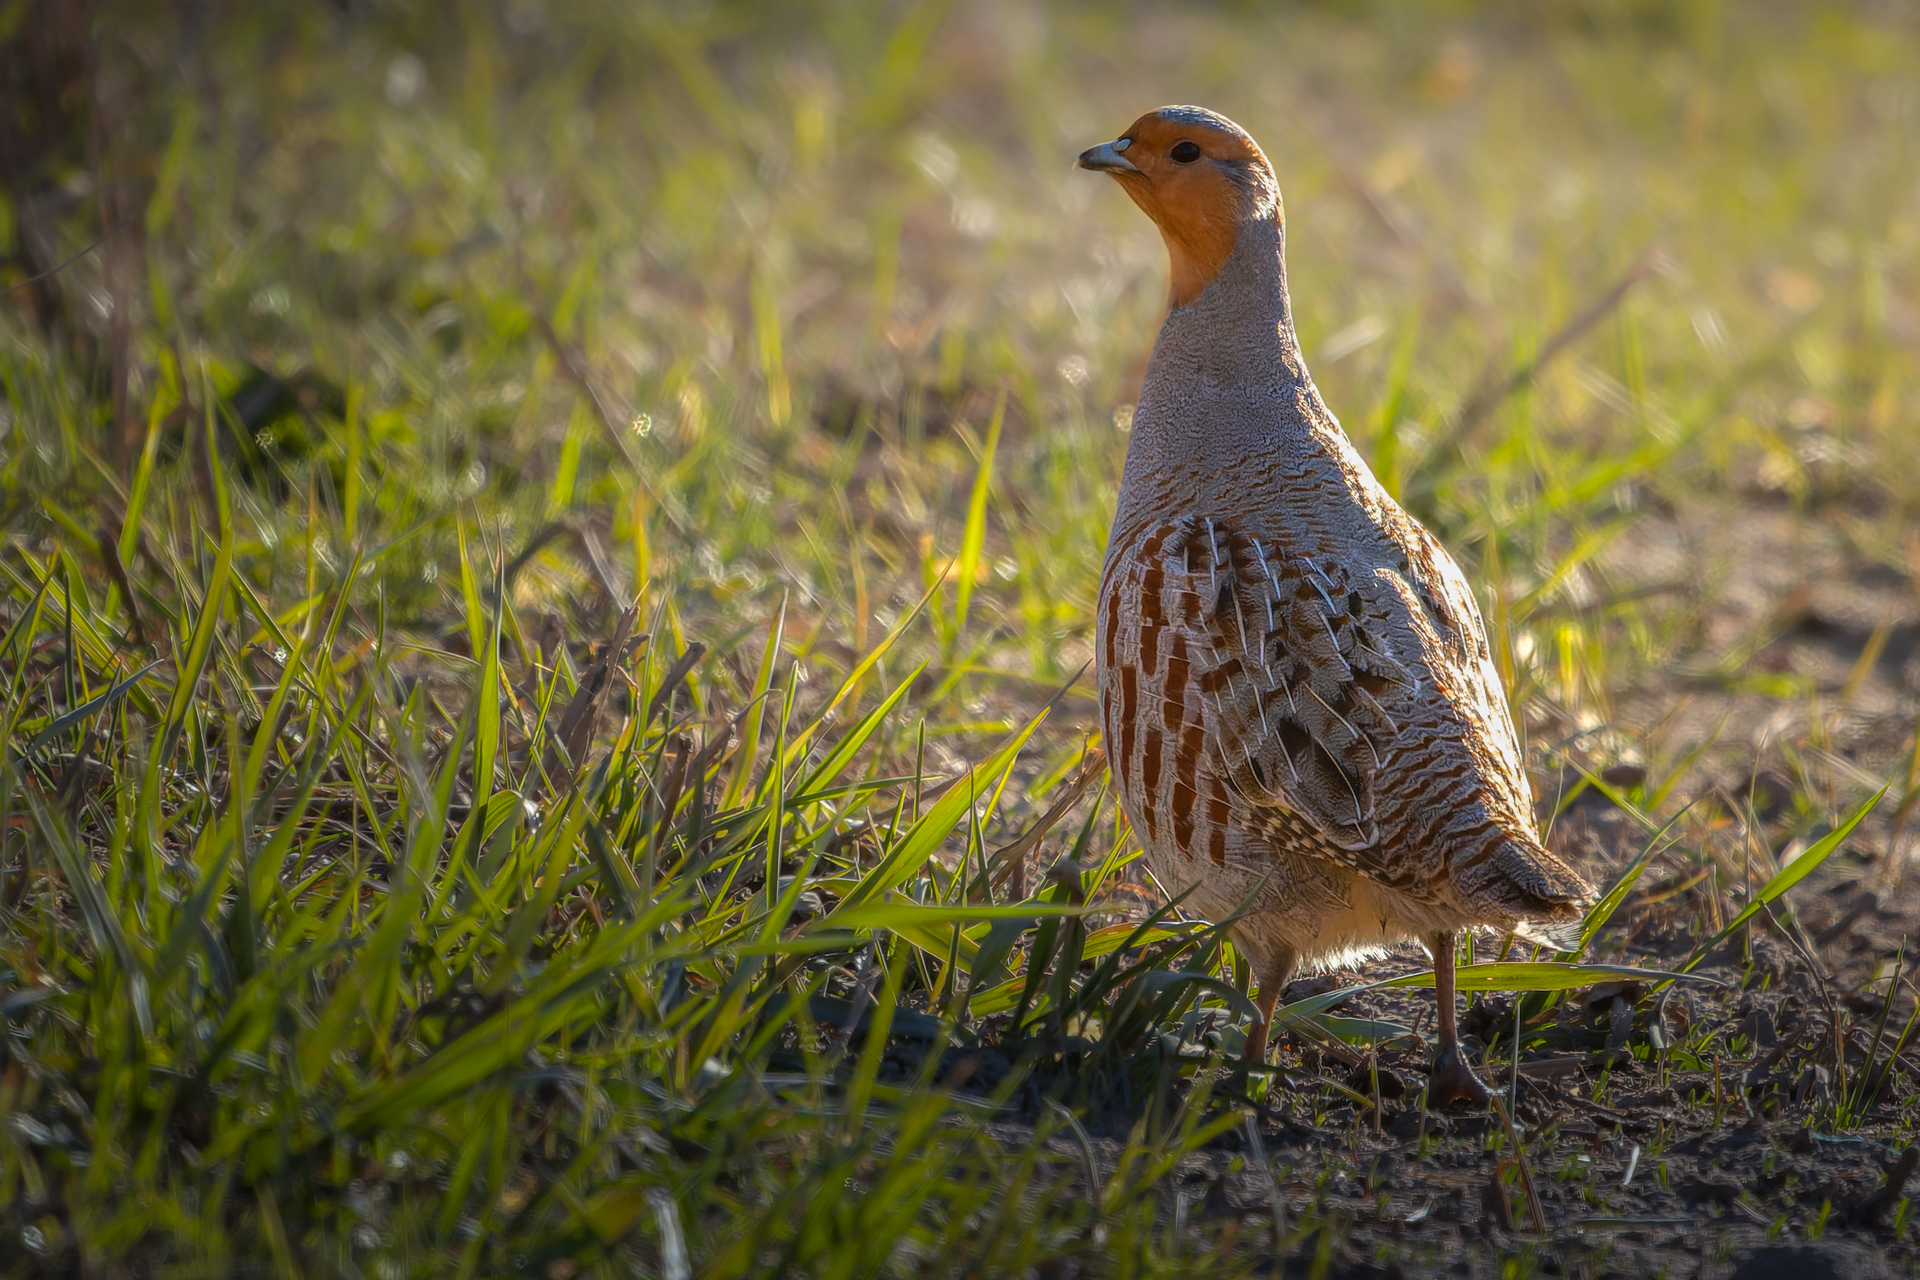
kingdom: Animalia
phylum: Chordata
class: Aves
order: Galliformes
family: Phasianidae
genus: Perdix
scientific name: Perdix perdix
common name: Grey partridge
